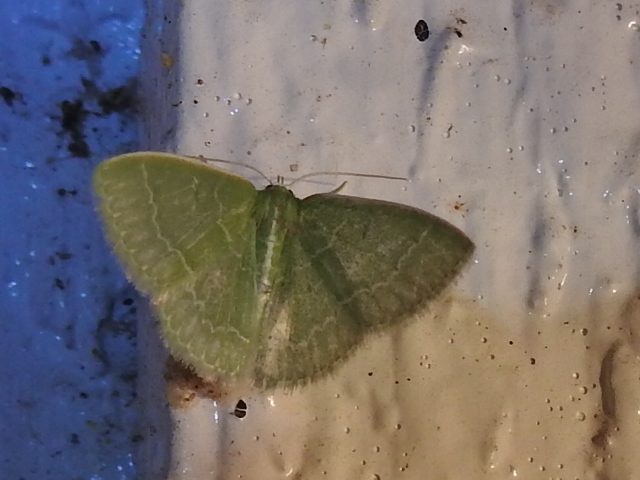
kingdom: Animalia
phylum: Arthropoda
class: Insecta
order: Lepidoptera
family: Geometridae
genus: Synchlora
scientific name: Synchlora frondaria
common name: Southern emerald
